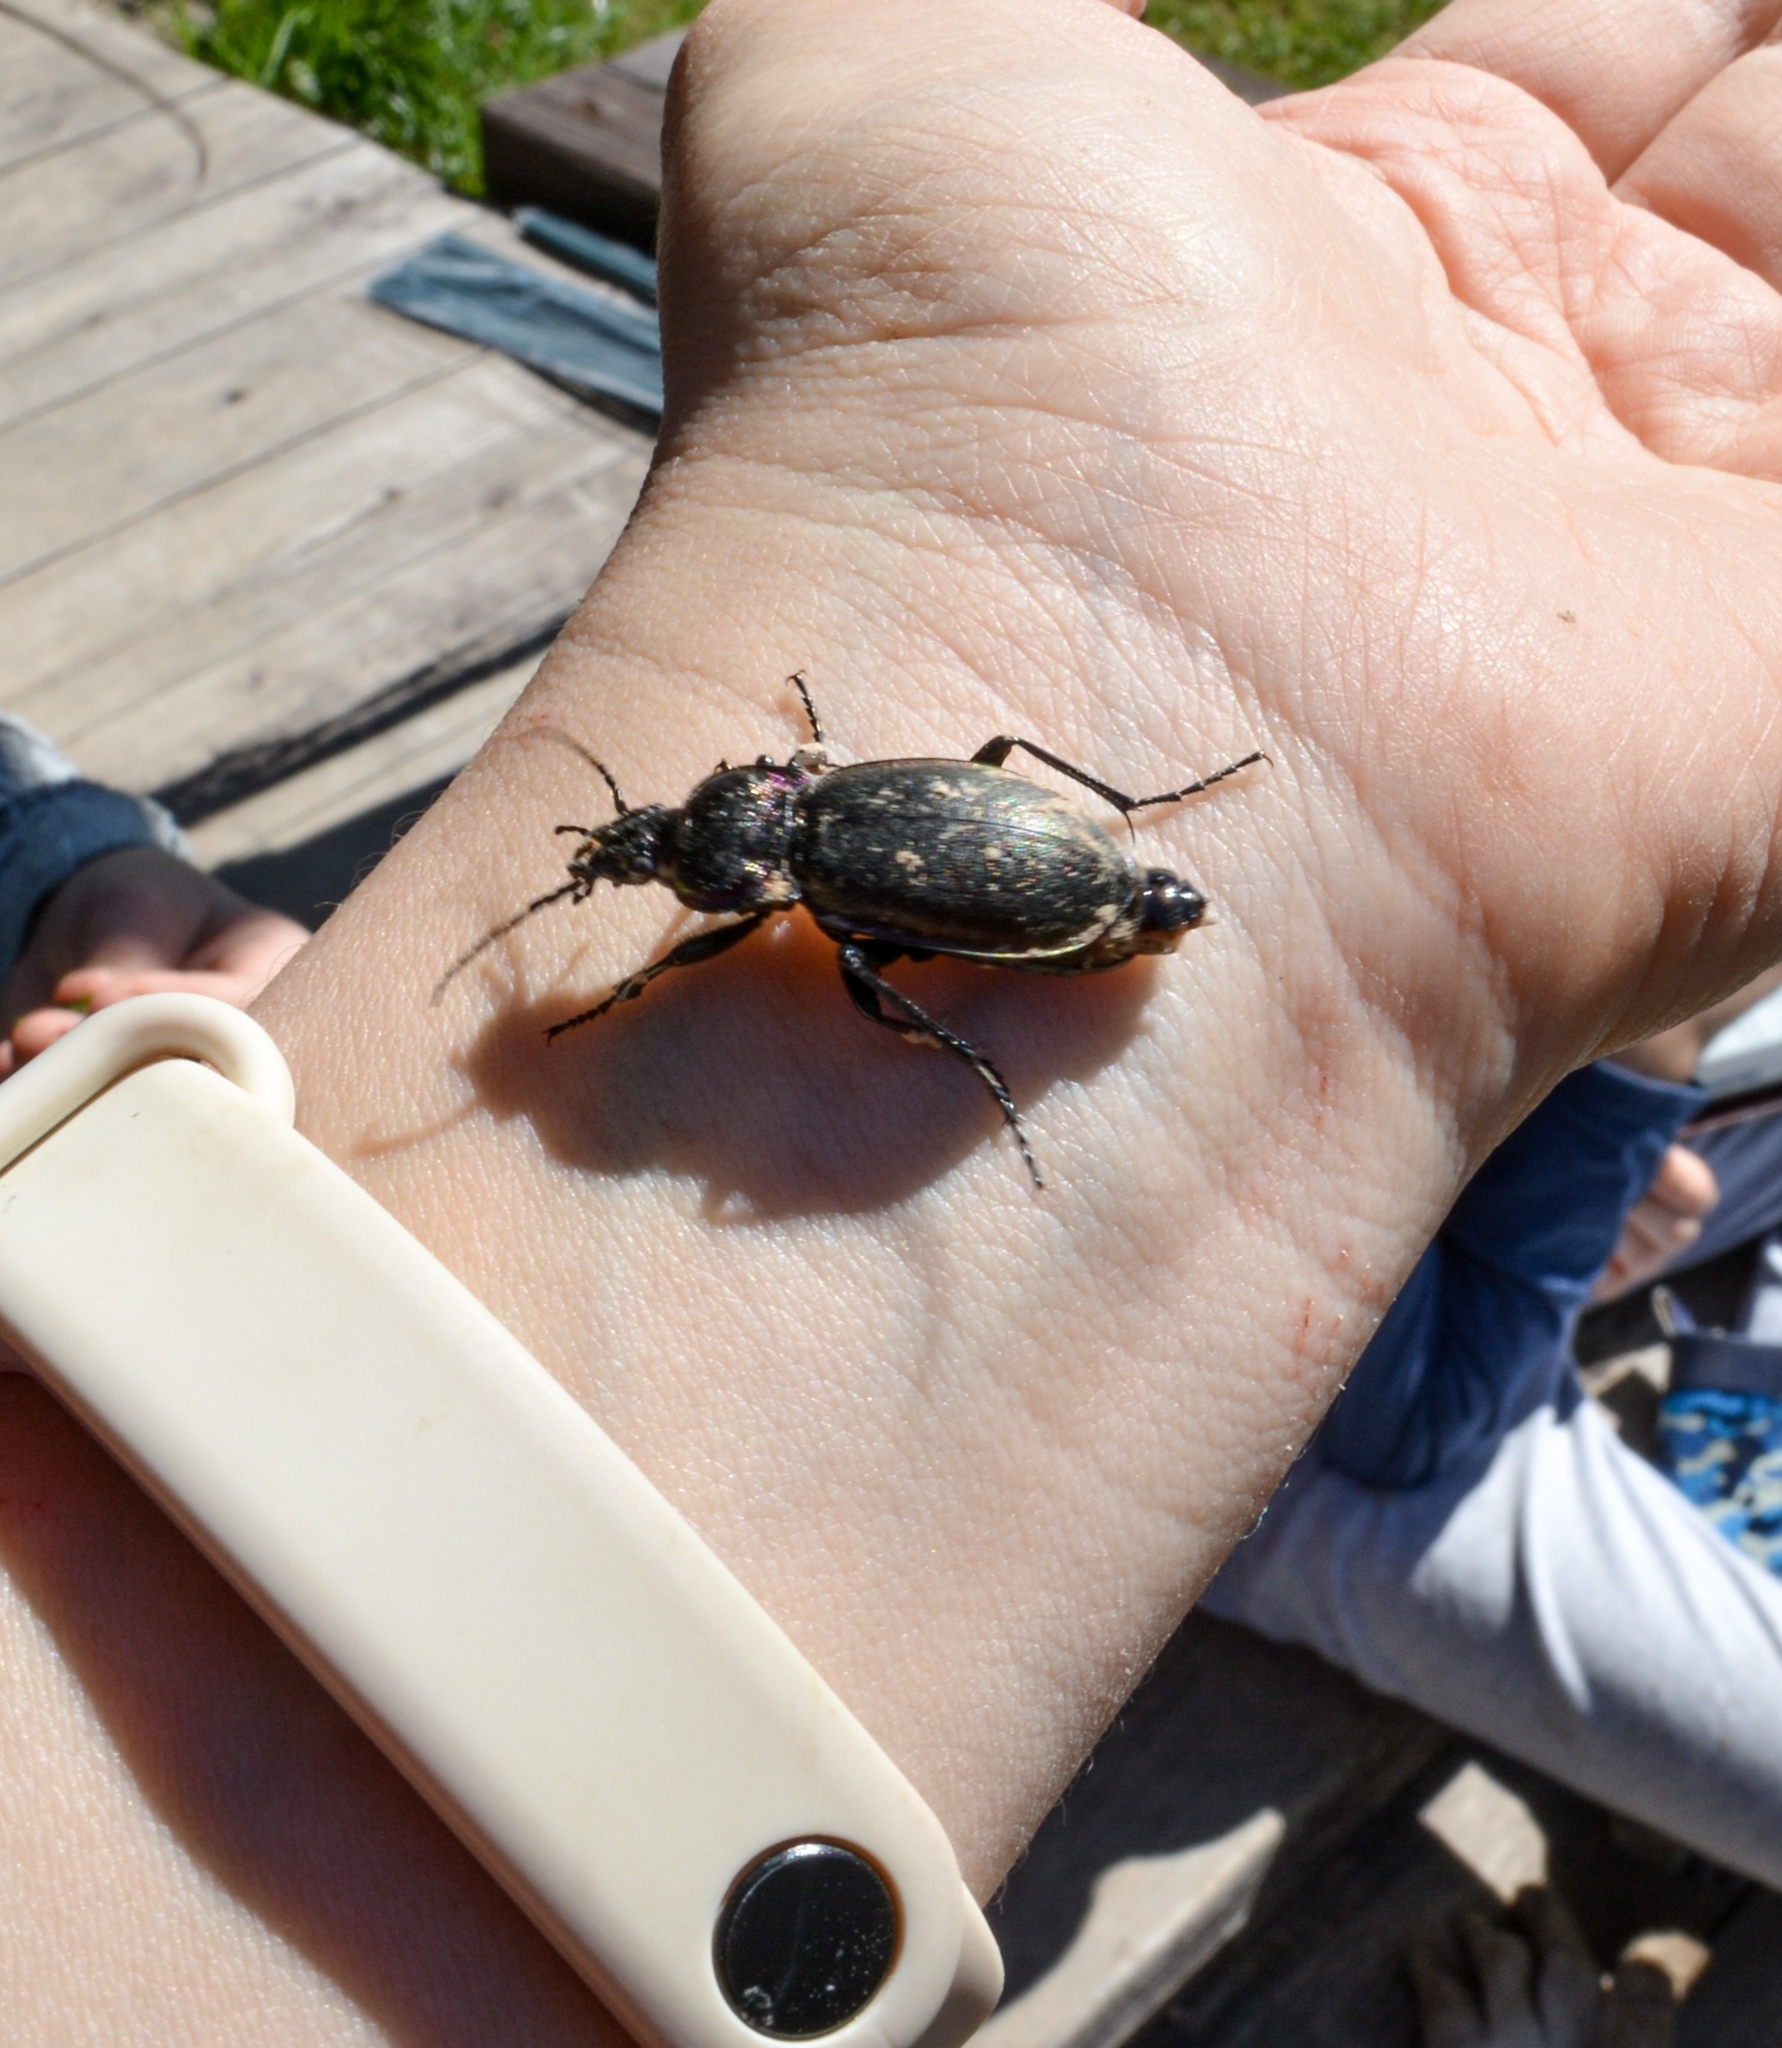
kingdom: Animalia
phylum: Arthropoda
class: Insecta
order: Coleoptera
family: Carabidae
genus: Carabus
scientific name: Carabus nemoralis
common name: European ground beetle
